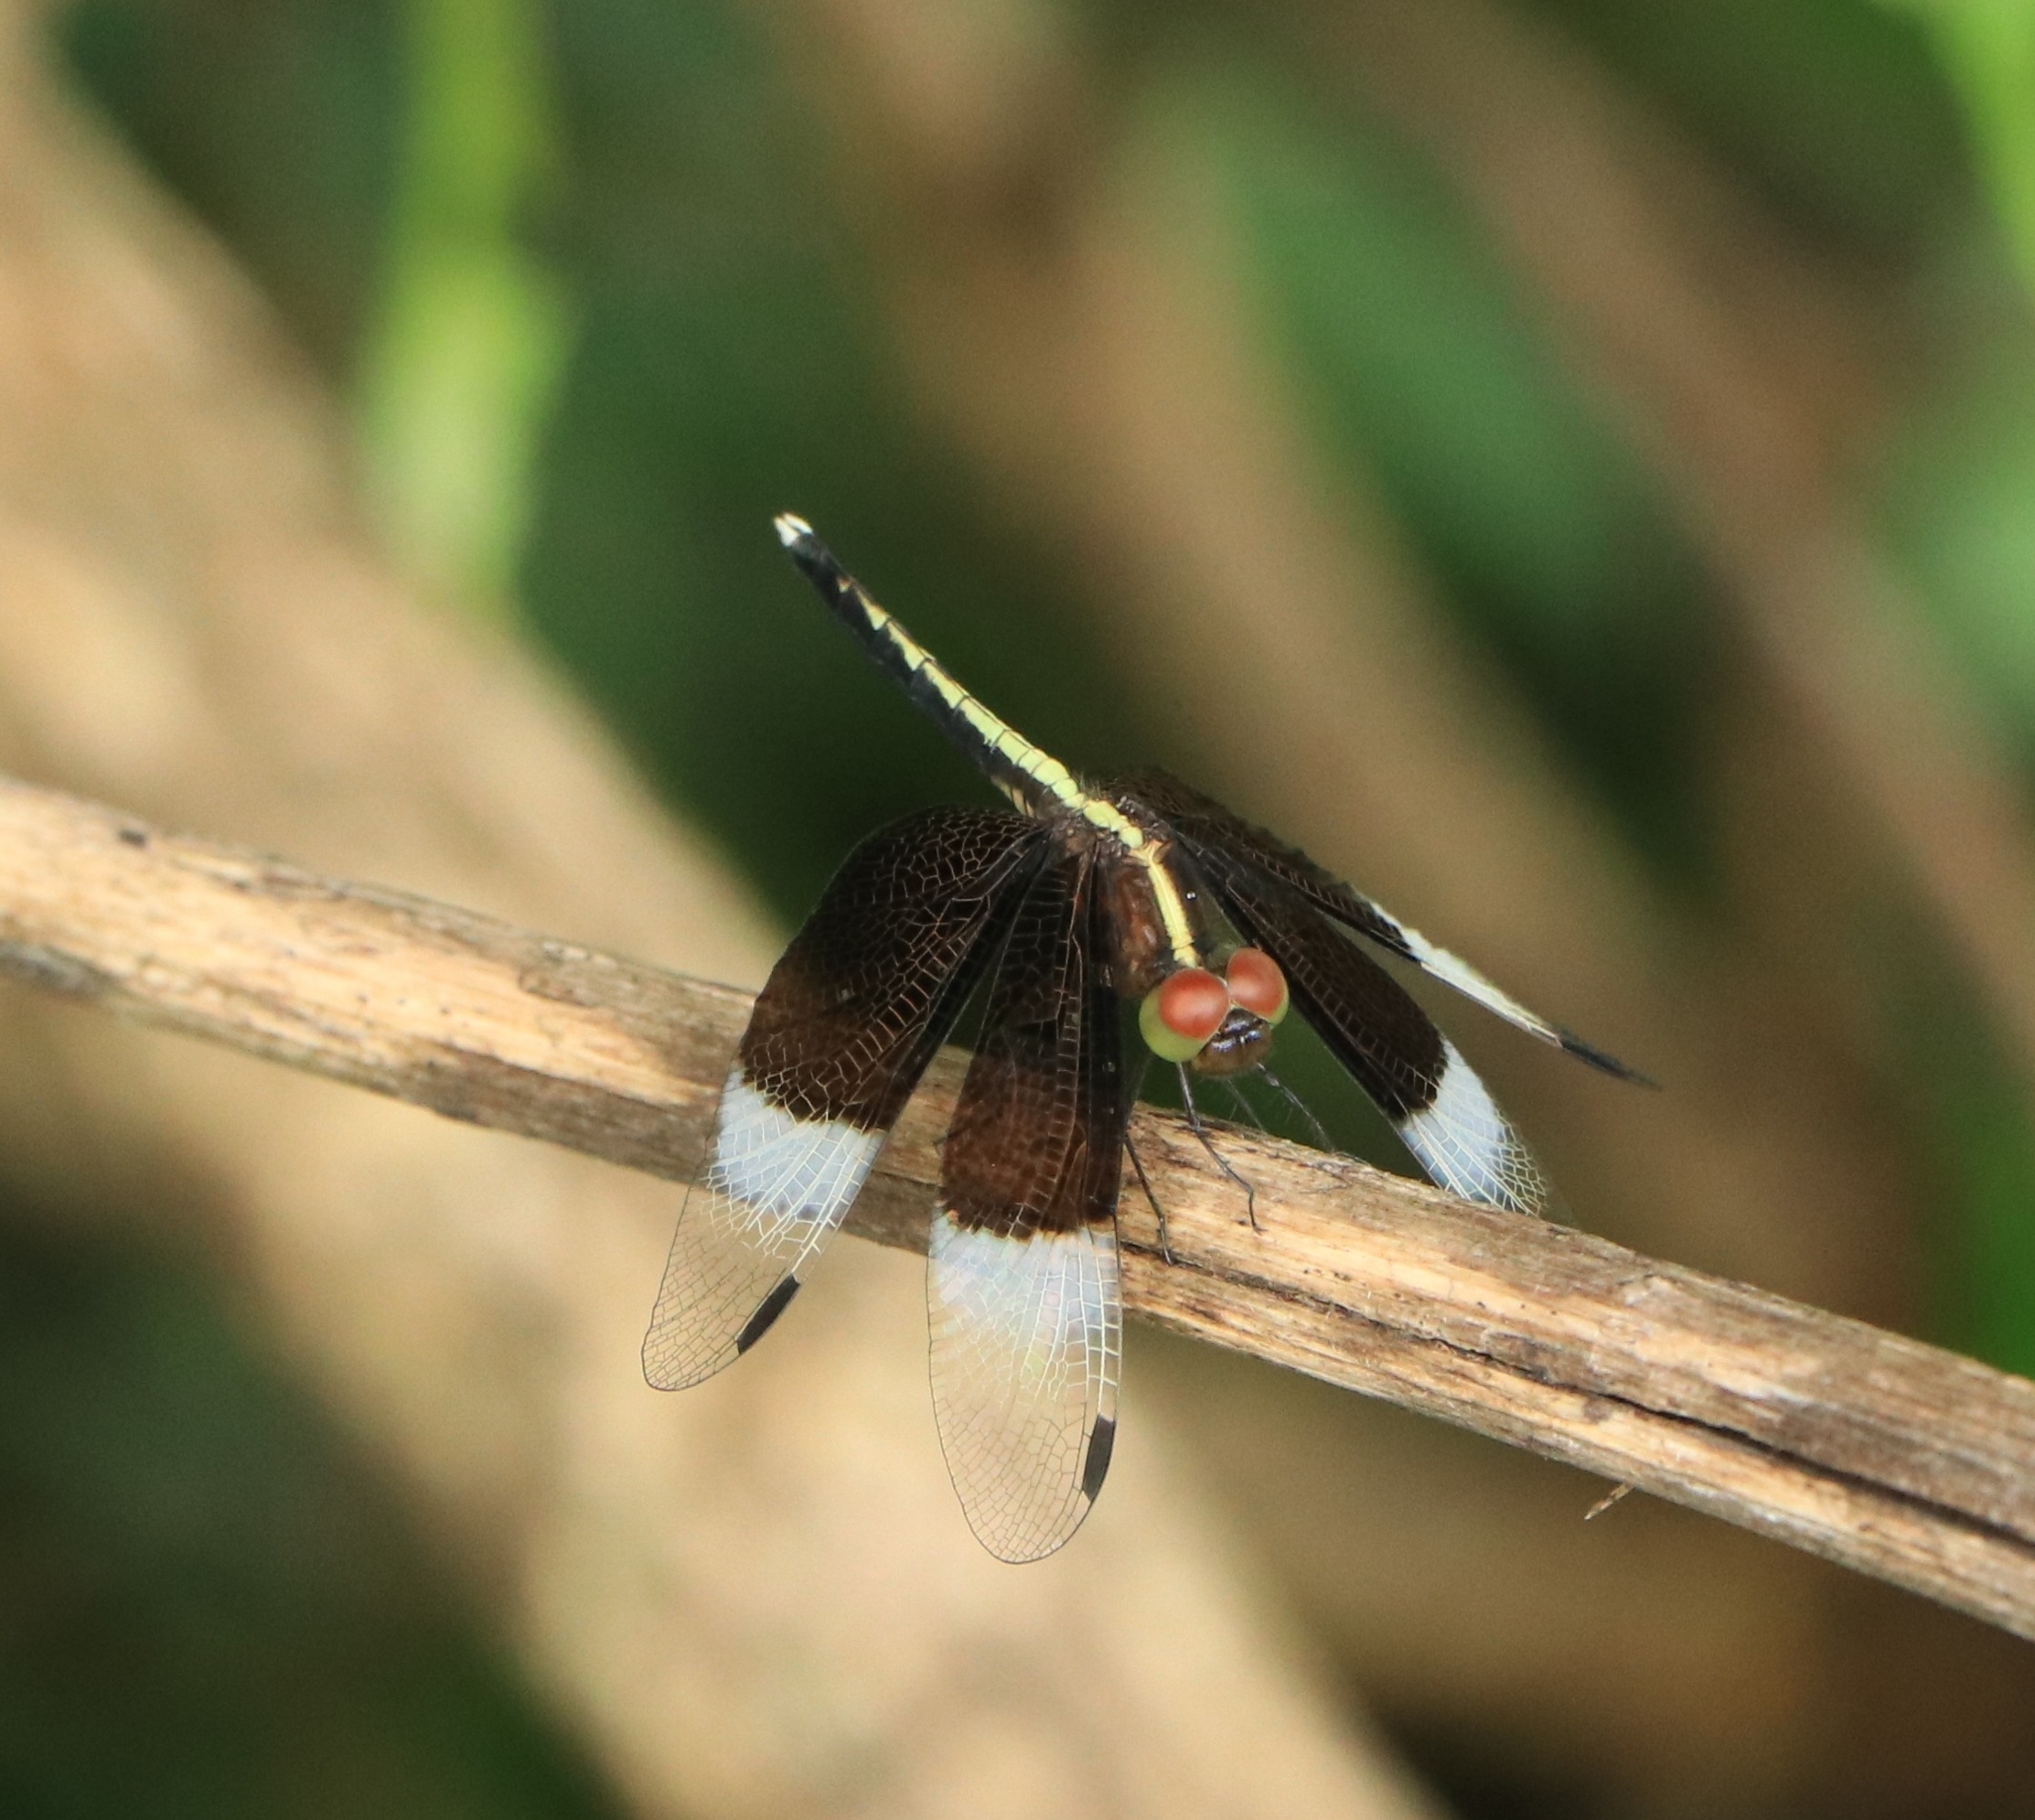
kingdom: Animalia
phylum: Arthropoda
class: Insecta
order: Odonata
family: Libellulidae
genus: Neurothemis
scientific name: Neurothemis tullia
